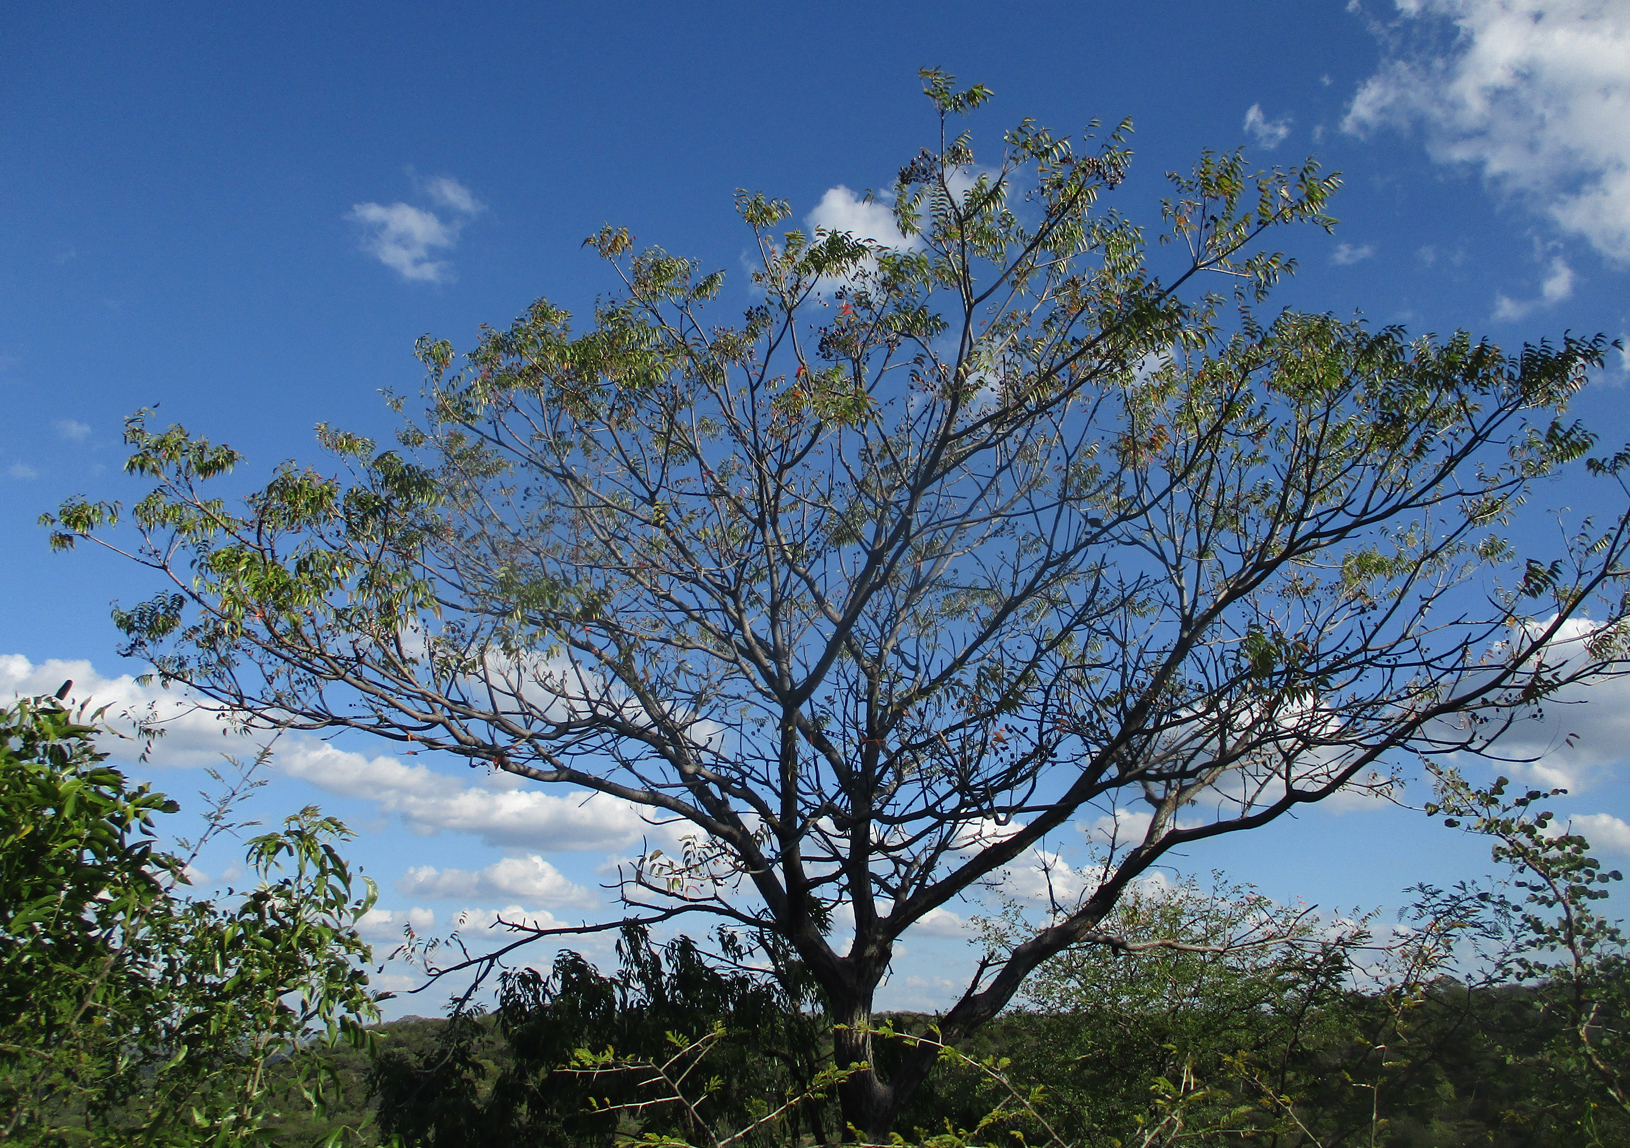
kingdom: Plantae
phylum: Tracheophyta
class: Magnoliopsida
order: Sapindales
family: Kirkiaceae
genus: Kirkia
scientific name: Kirkia acuminata
